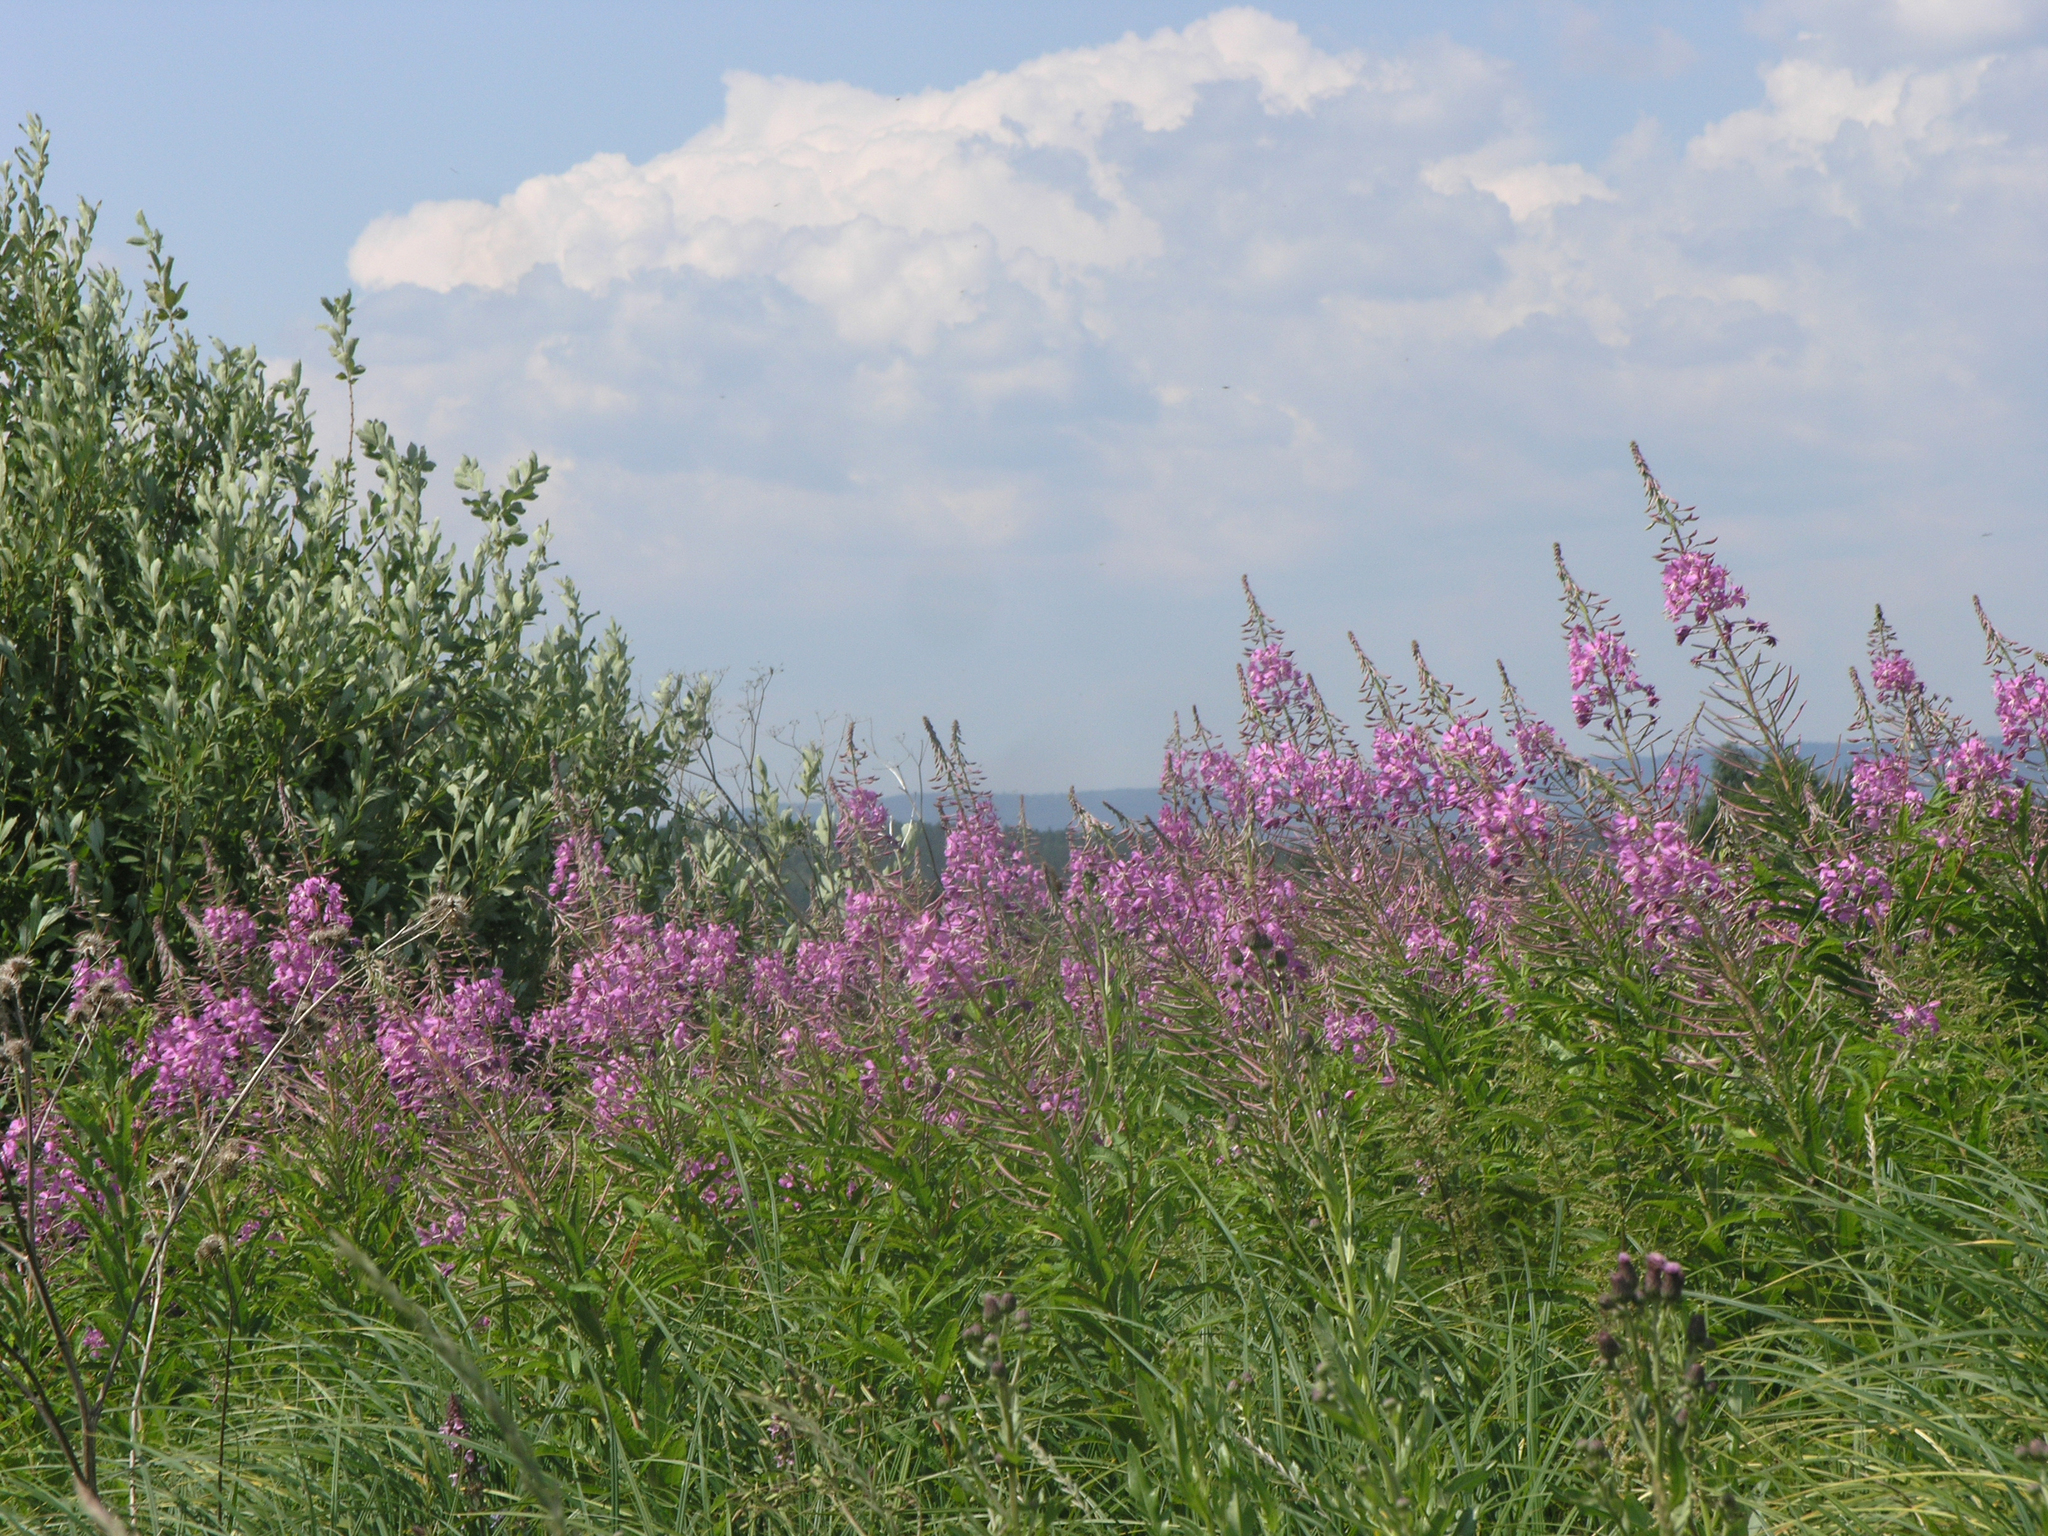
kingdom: Plantae
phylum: Tracheophyta
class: Magnoliopsida
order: Myrtales
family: Onagraceae
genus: Chamaenerion
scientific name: Chamaenerion angustifolium
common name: Fireweed
